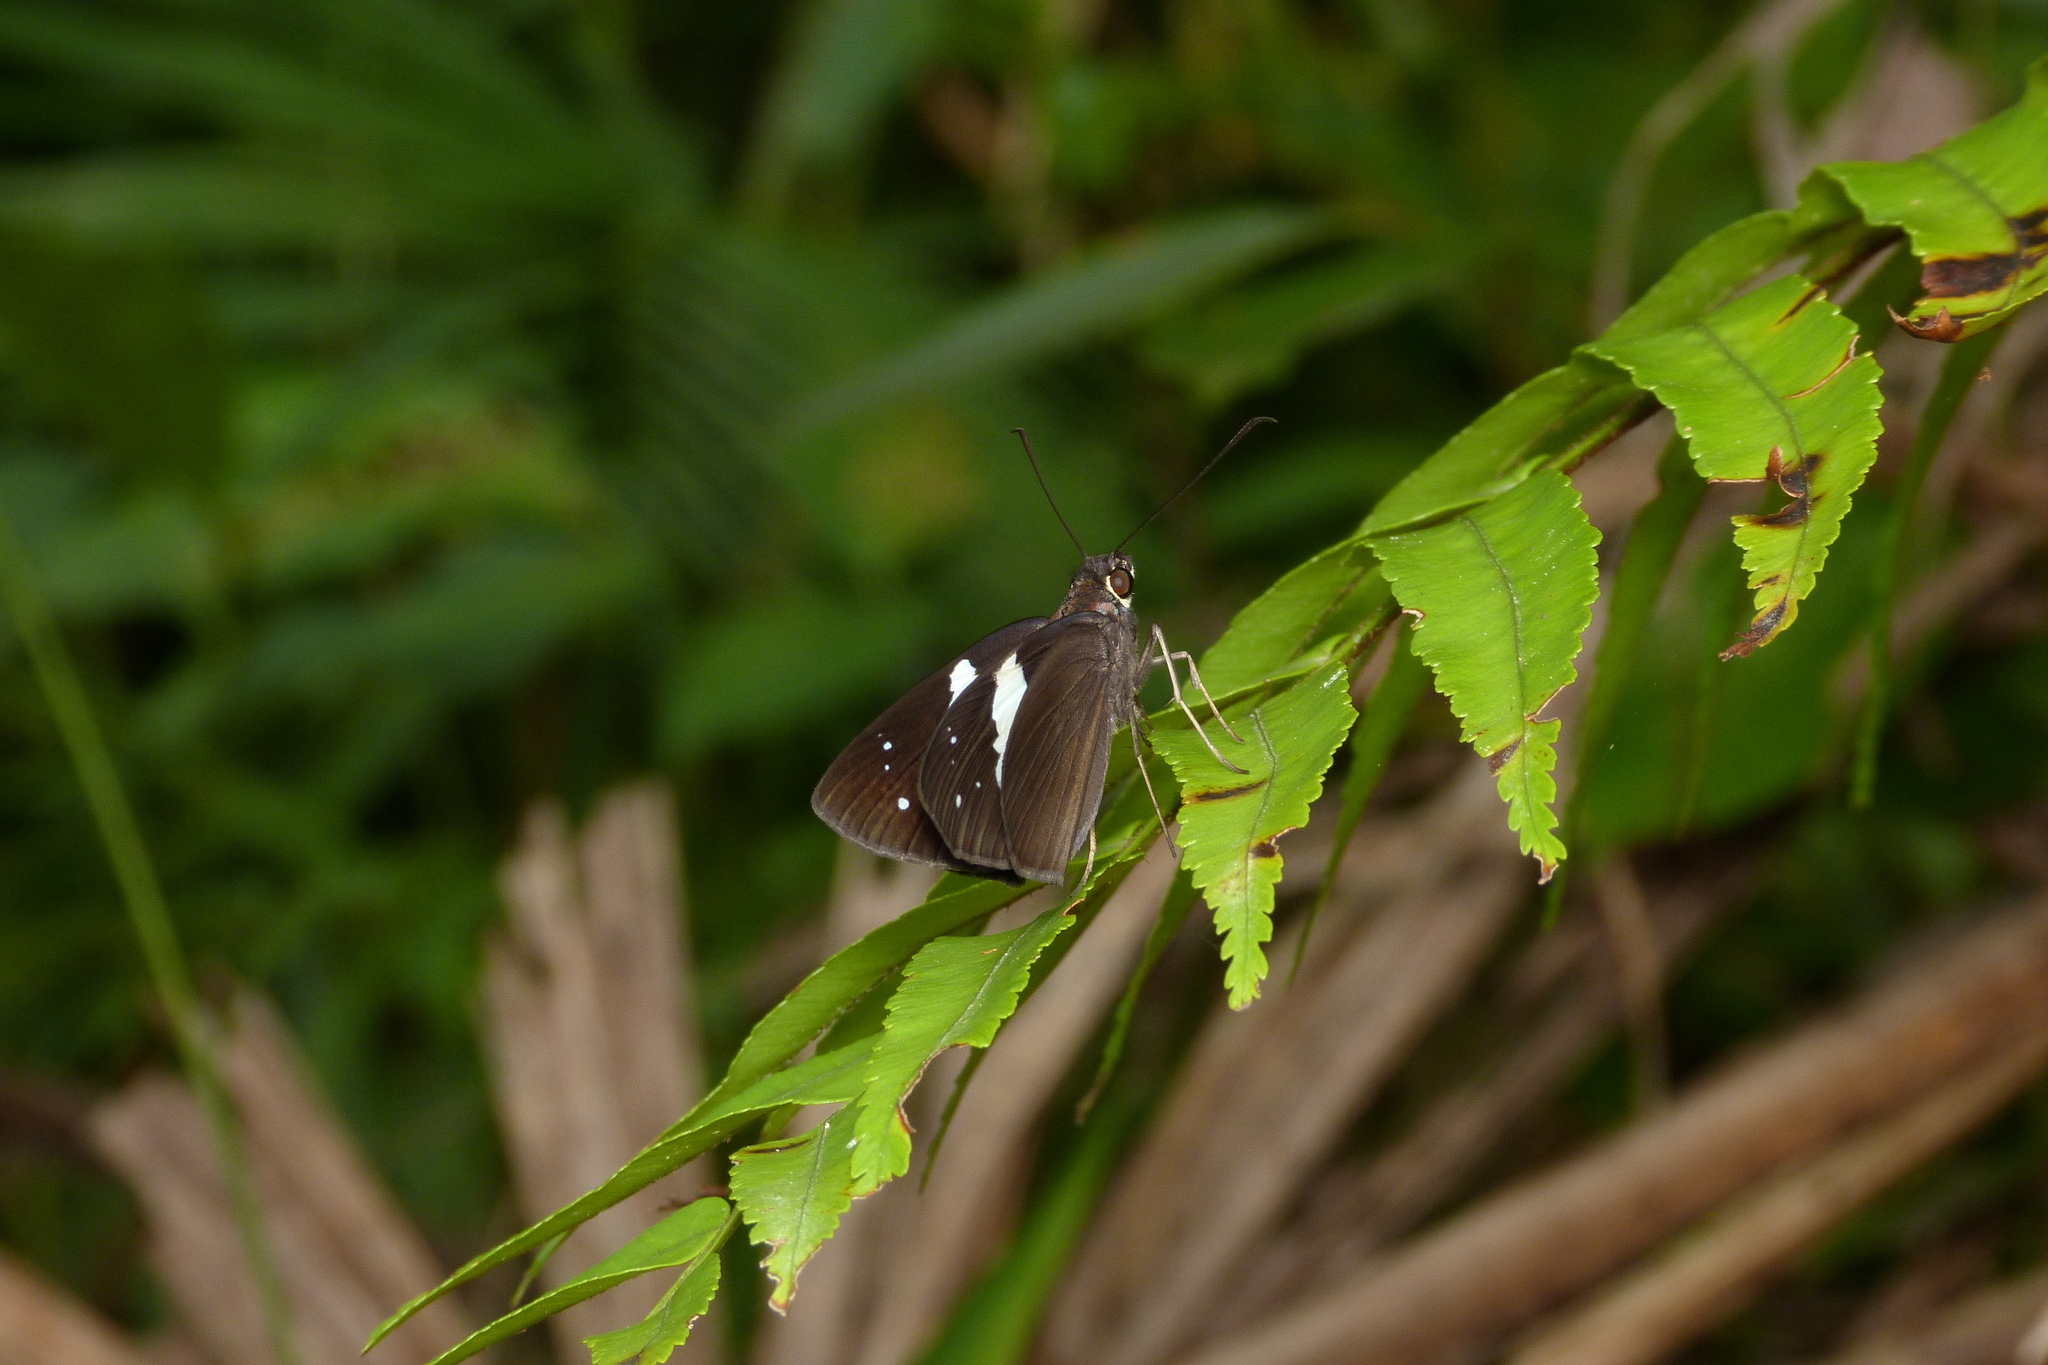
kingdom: Animalia
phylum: Arthropoda
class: Insecta
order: Lepidoptera
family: Hesperiidae
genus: Notocrypta
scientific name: Notocrypta waigensis
